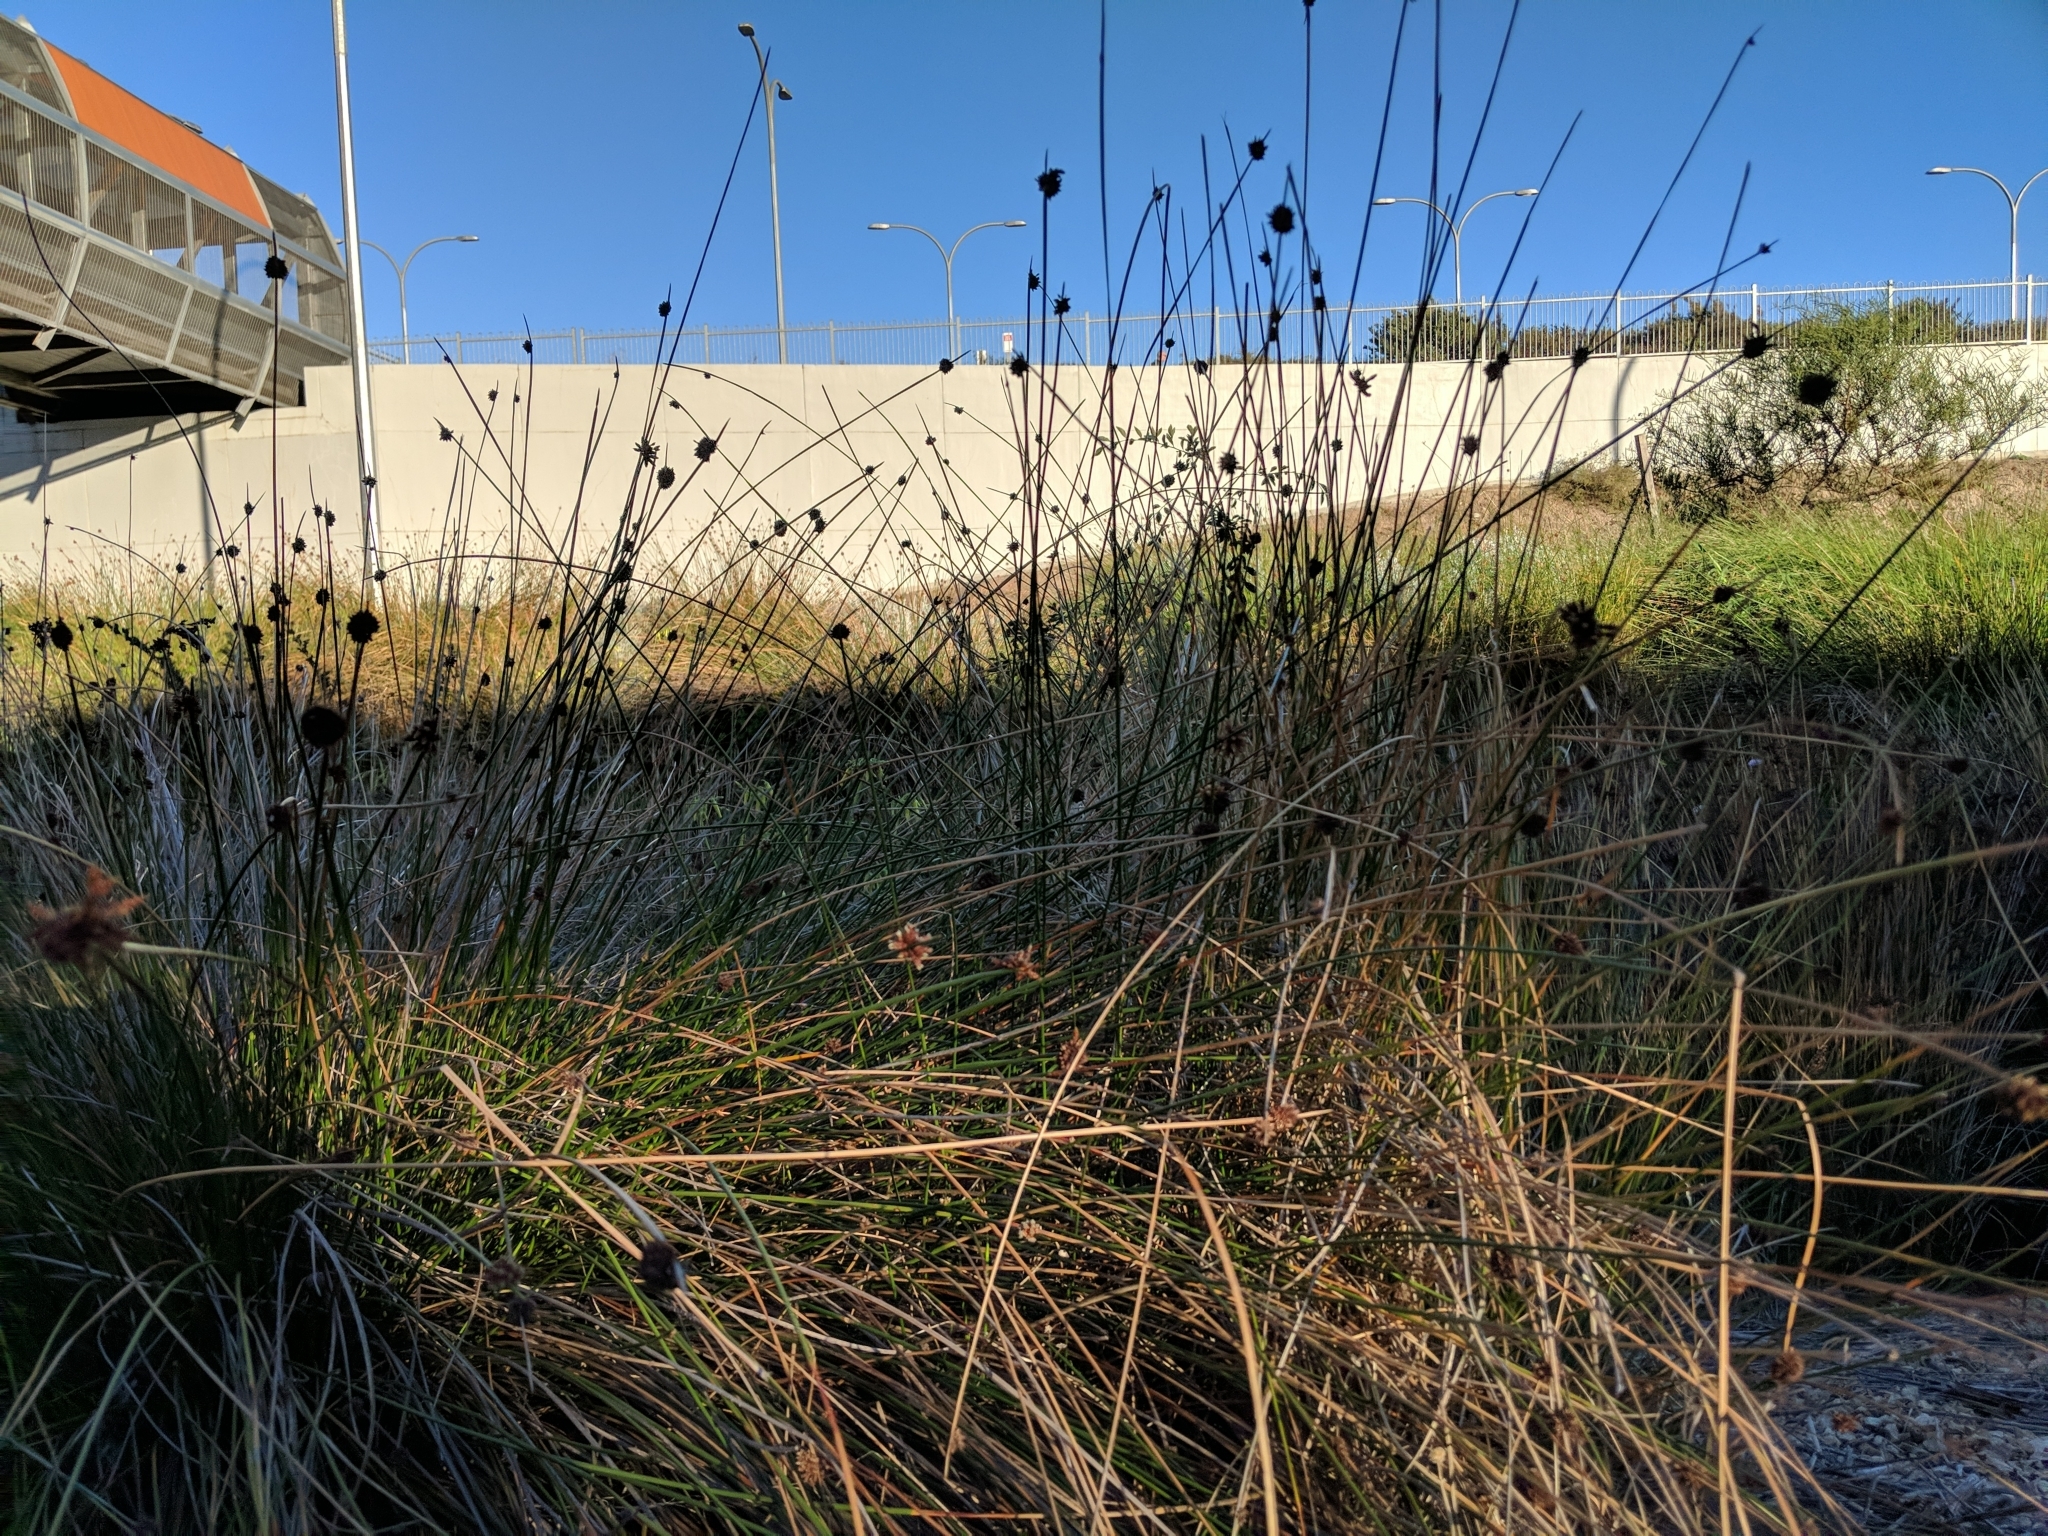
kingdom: Plantae
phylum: Tracheophyta
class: Liliopsida
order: Poales
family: Cyperaceae
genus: Ficinia
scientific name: Ficinia nodosa
